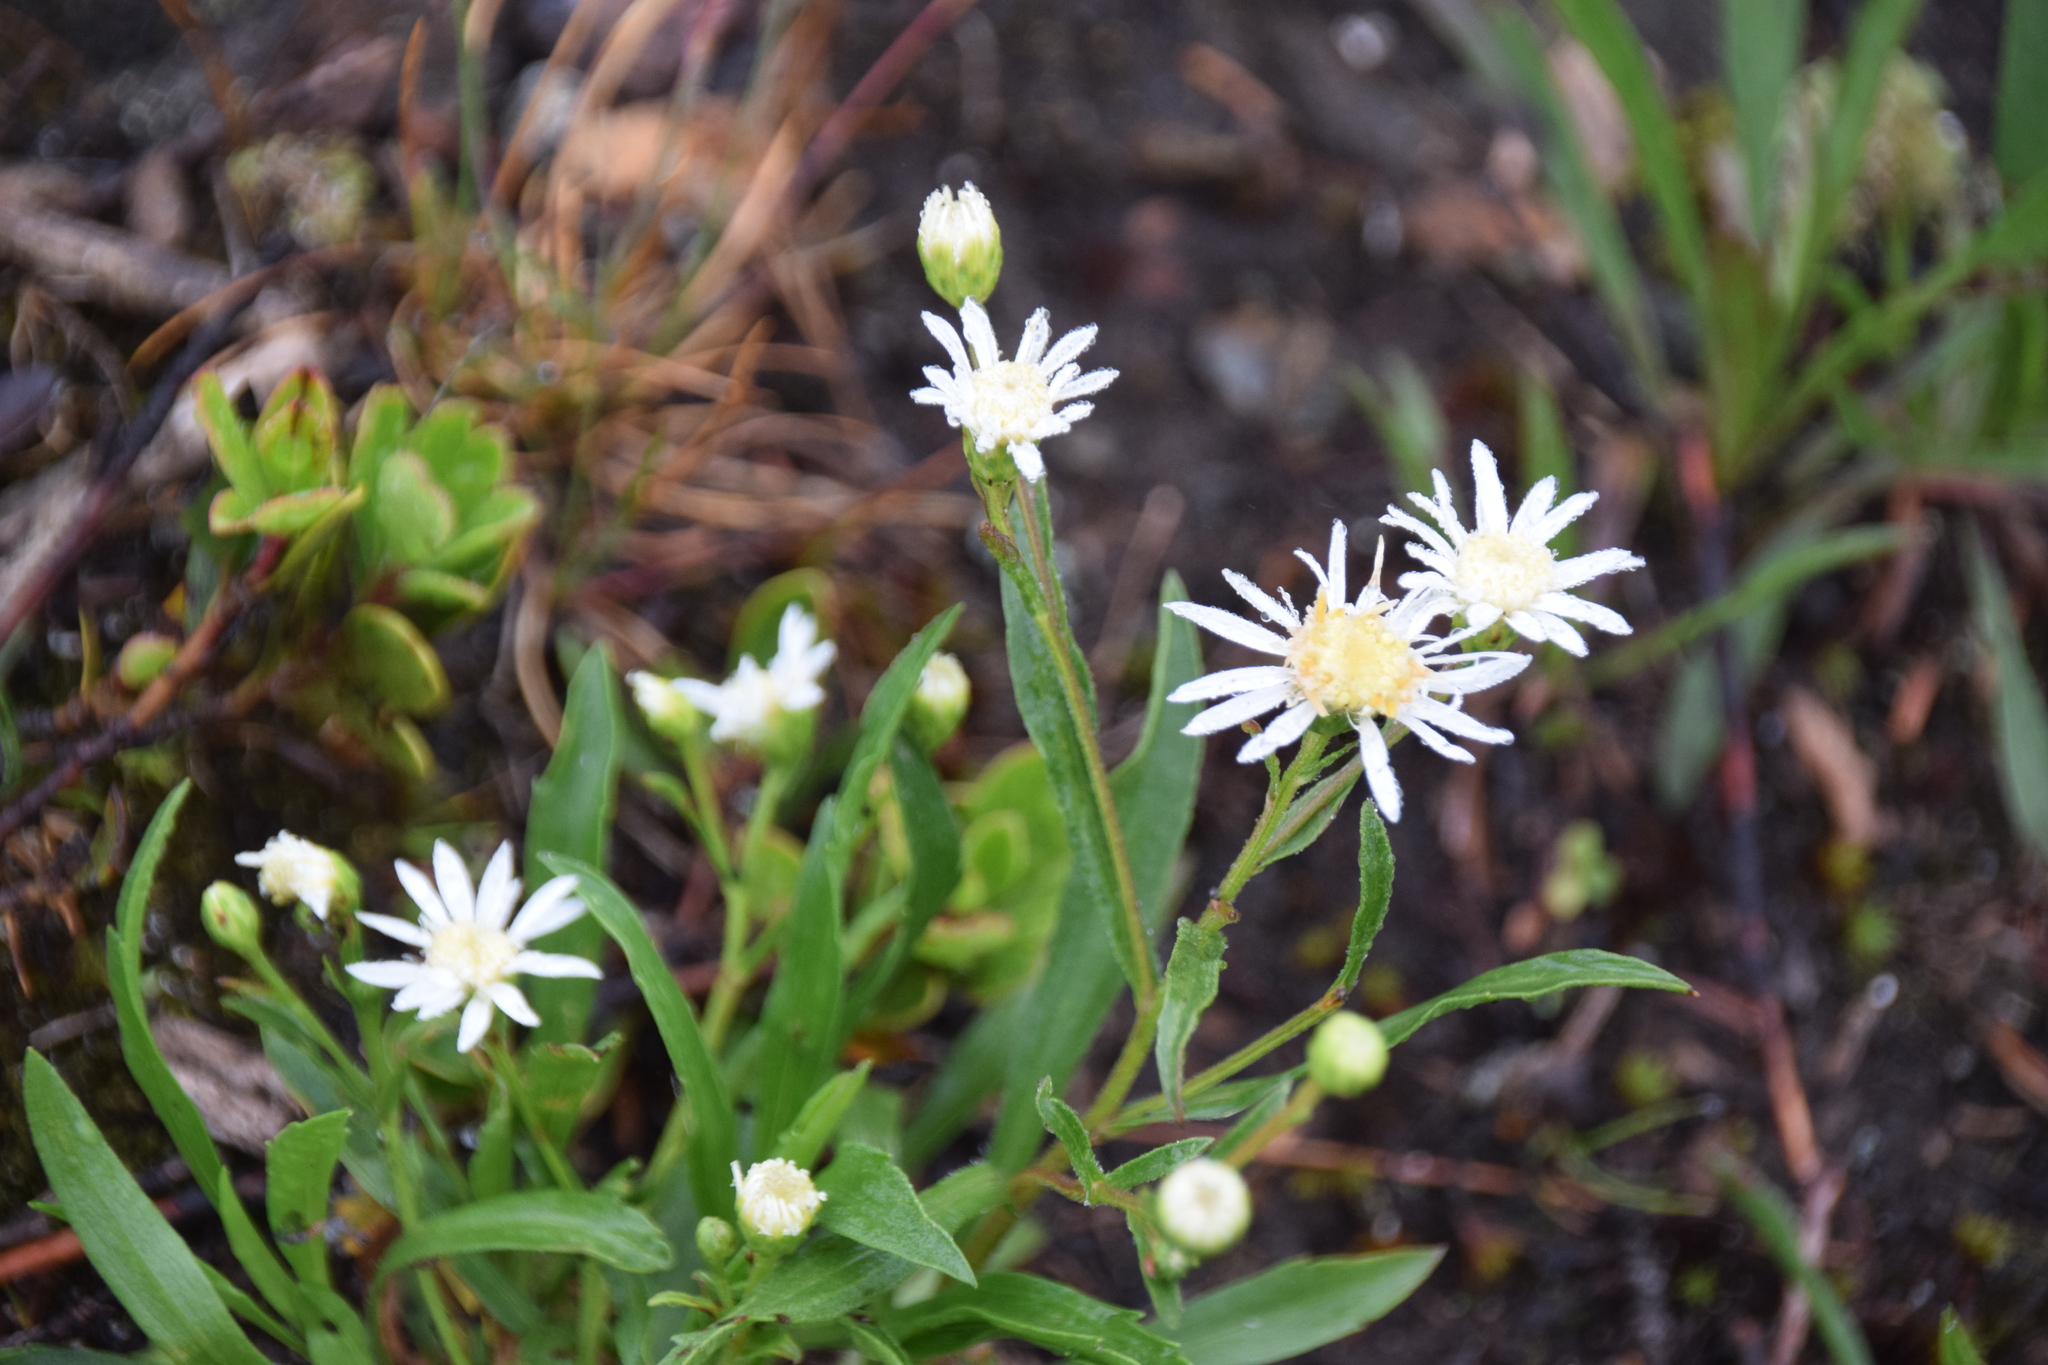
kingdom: Plantae
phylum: Tracheophyta
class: Magnoliopsida
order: Asterales
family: Asteraceae
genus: Solidago
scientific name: Solidago ptarmicoides
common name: White flat-top goldenrod
